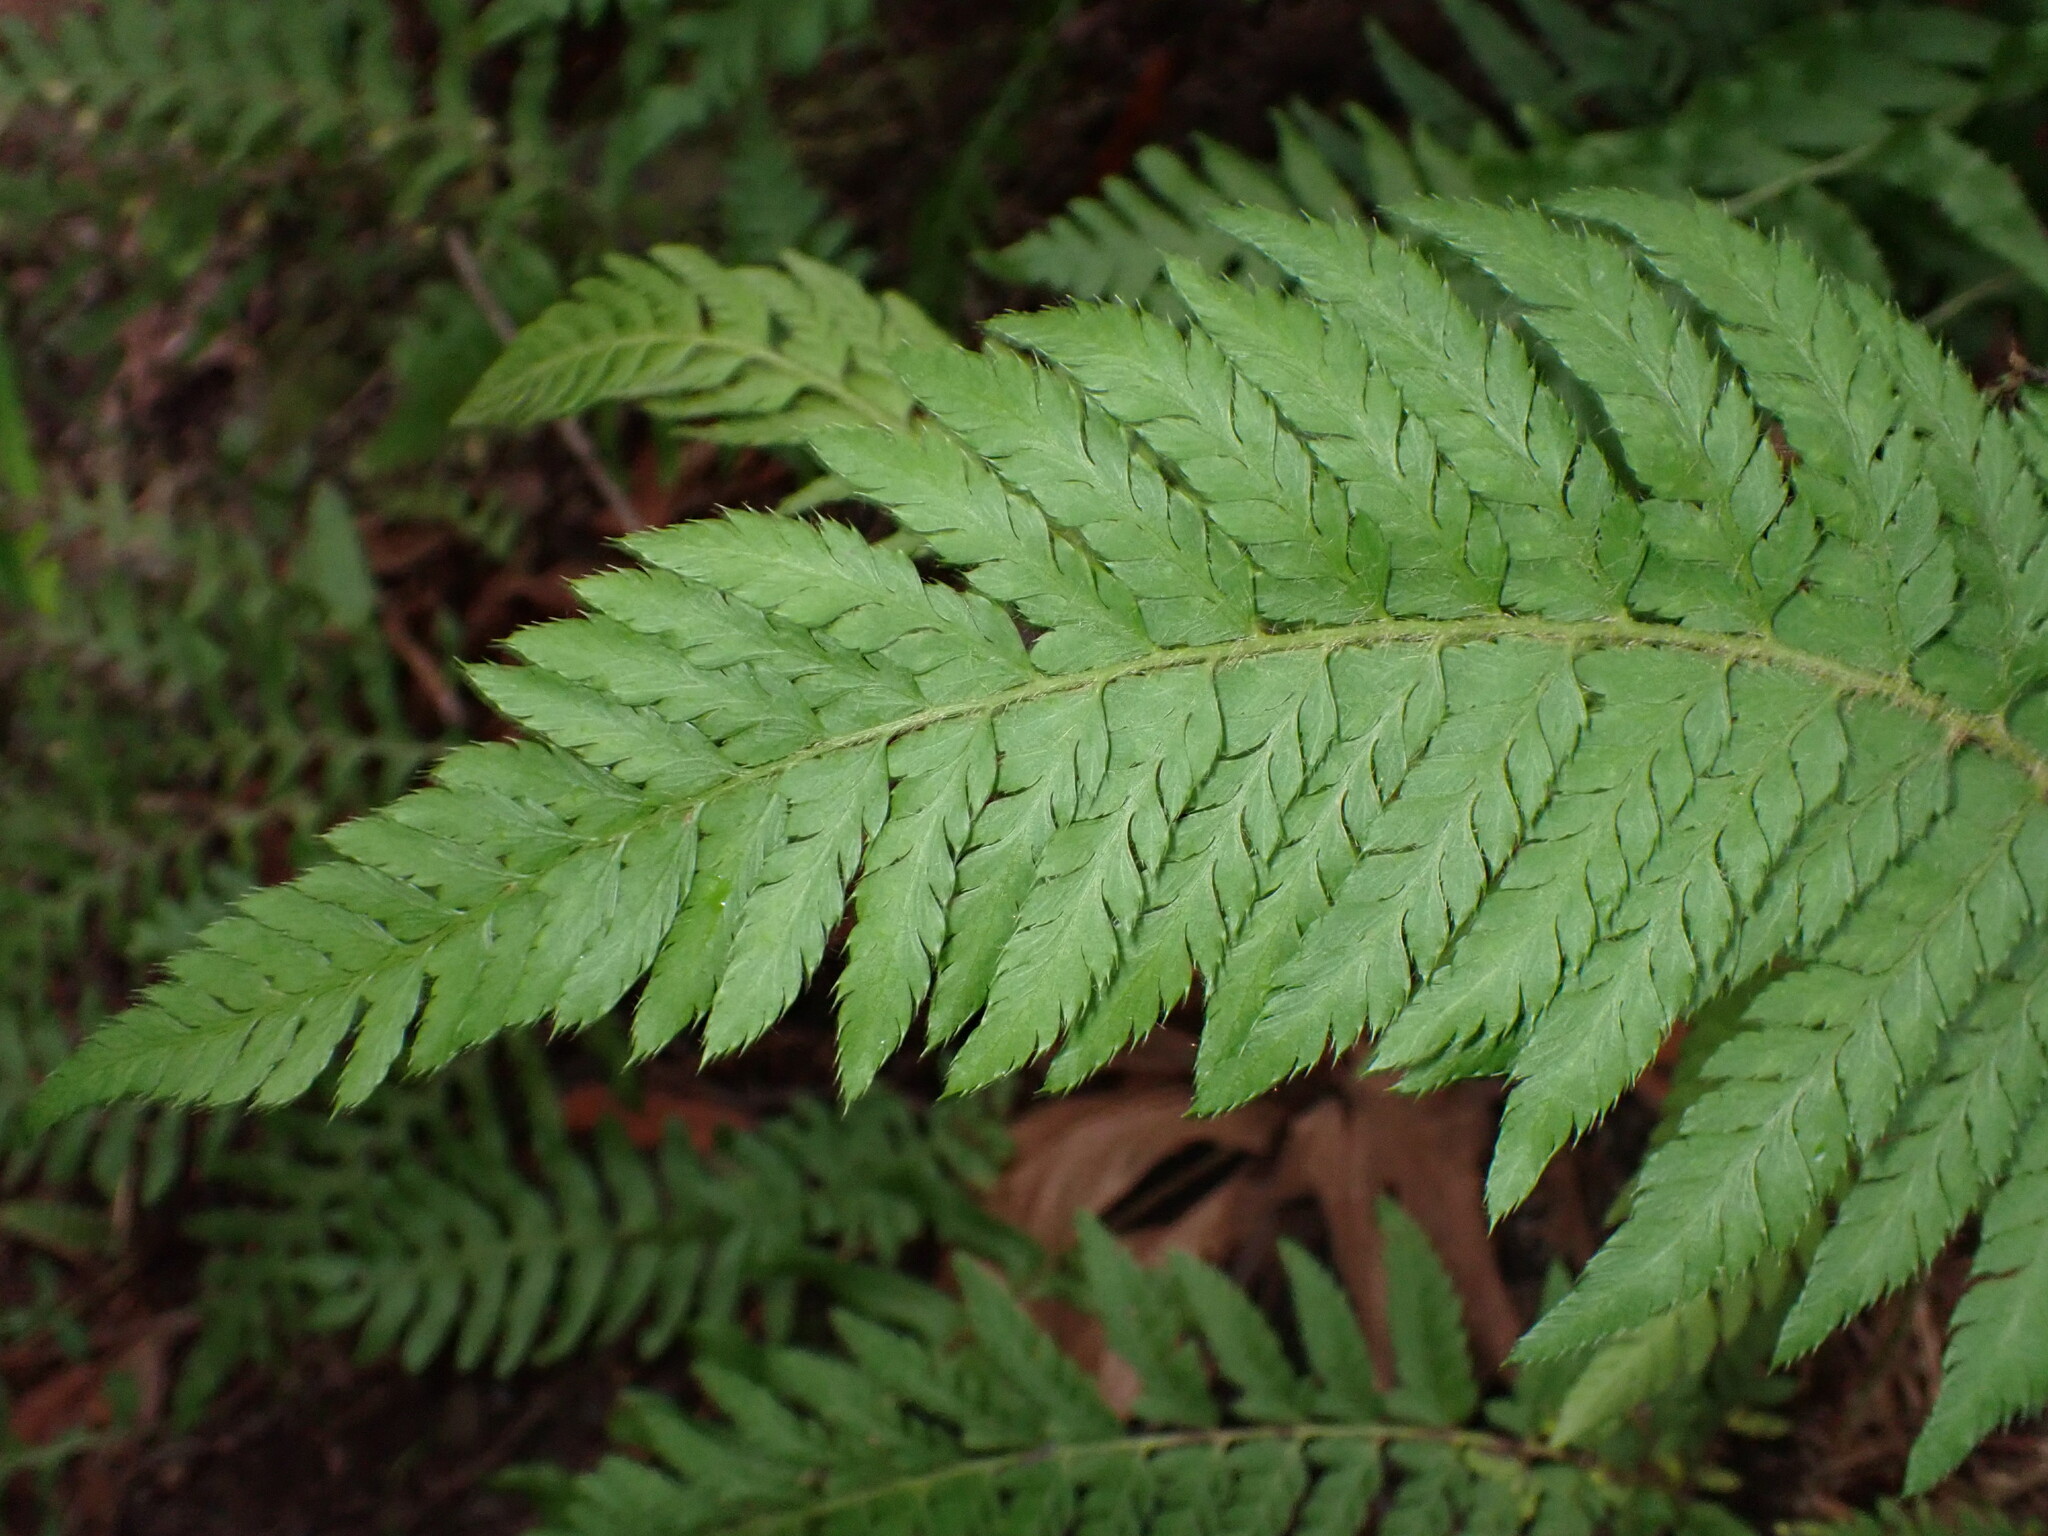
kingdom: Plantae
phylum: Tracheophyta
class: Polypodiopsida
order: Polypodiales
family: Dryopteridaceae
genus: Polystichum
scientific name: Polystichum dudleyi
